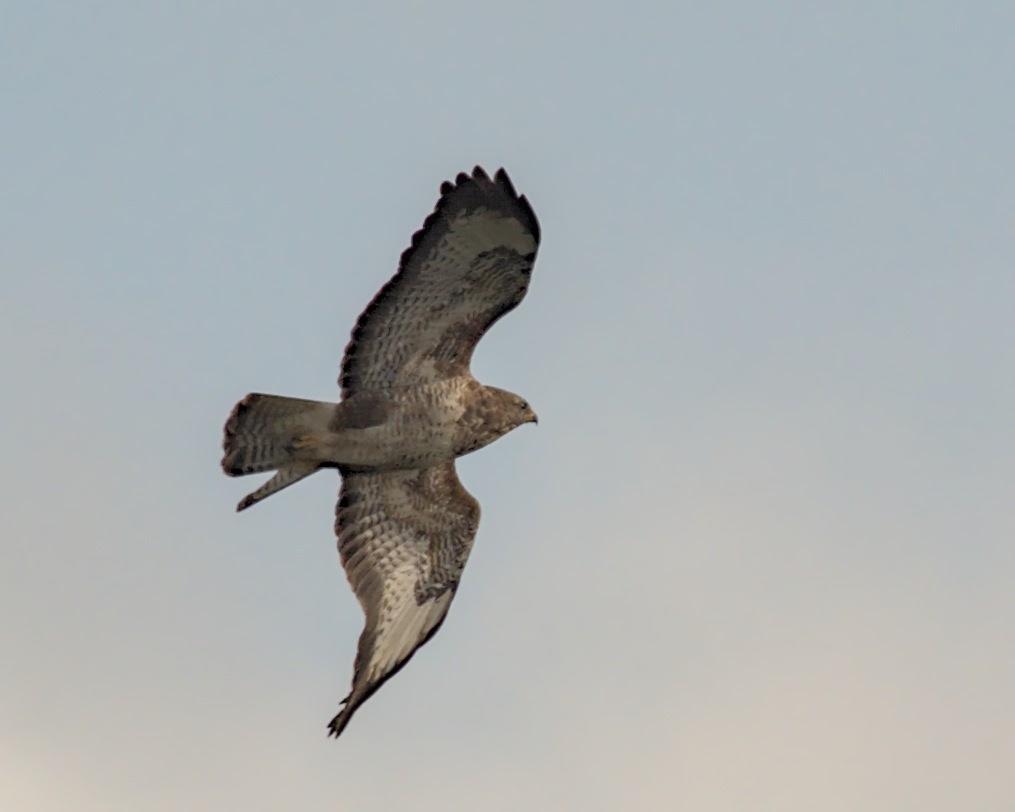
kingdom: Animalia
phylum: Chordata
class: Aves
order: Accipitriformes
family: Accipitridae
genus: Buteo
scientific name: Buteo buteo
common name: Common buzzard
